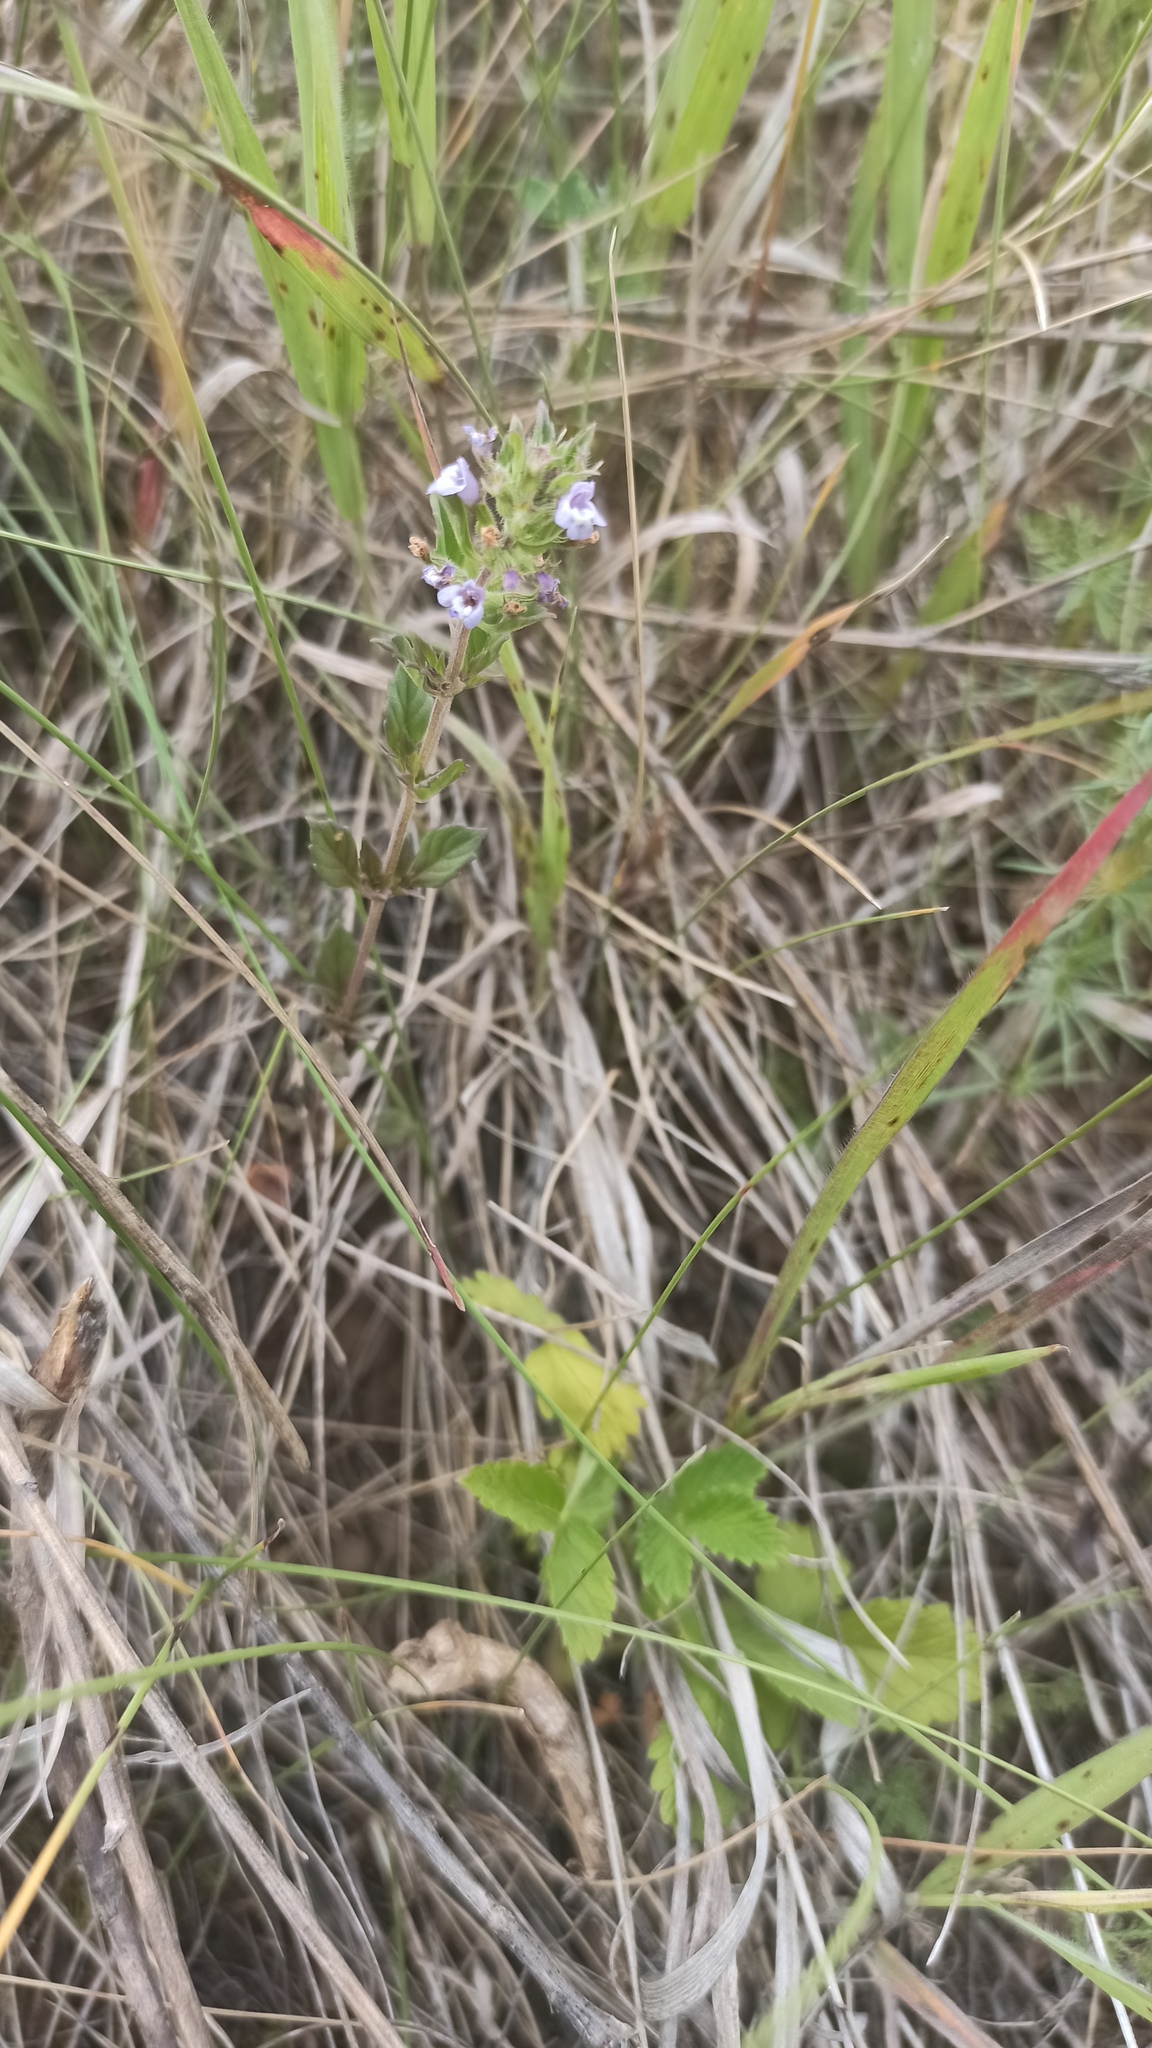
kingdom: Plantae
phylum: Tracheophyta
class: Magnoliopsida
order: Lamiales
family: Lamiaceae
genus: Clinopodium
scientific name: Clinopodium acinos
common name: Basil thyme
